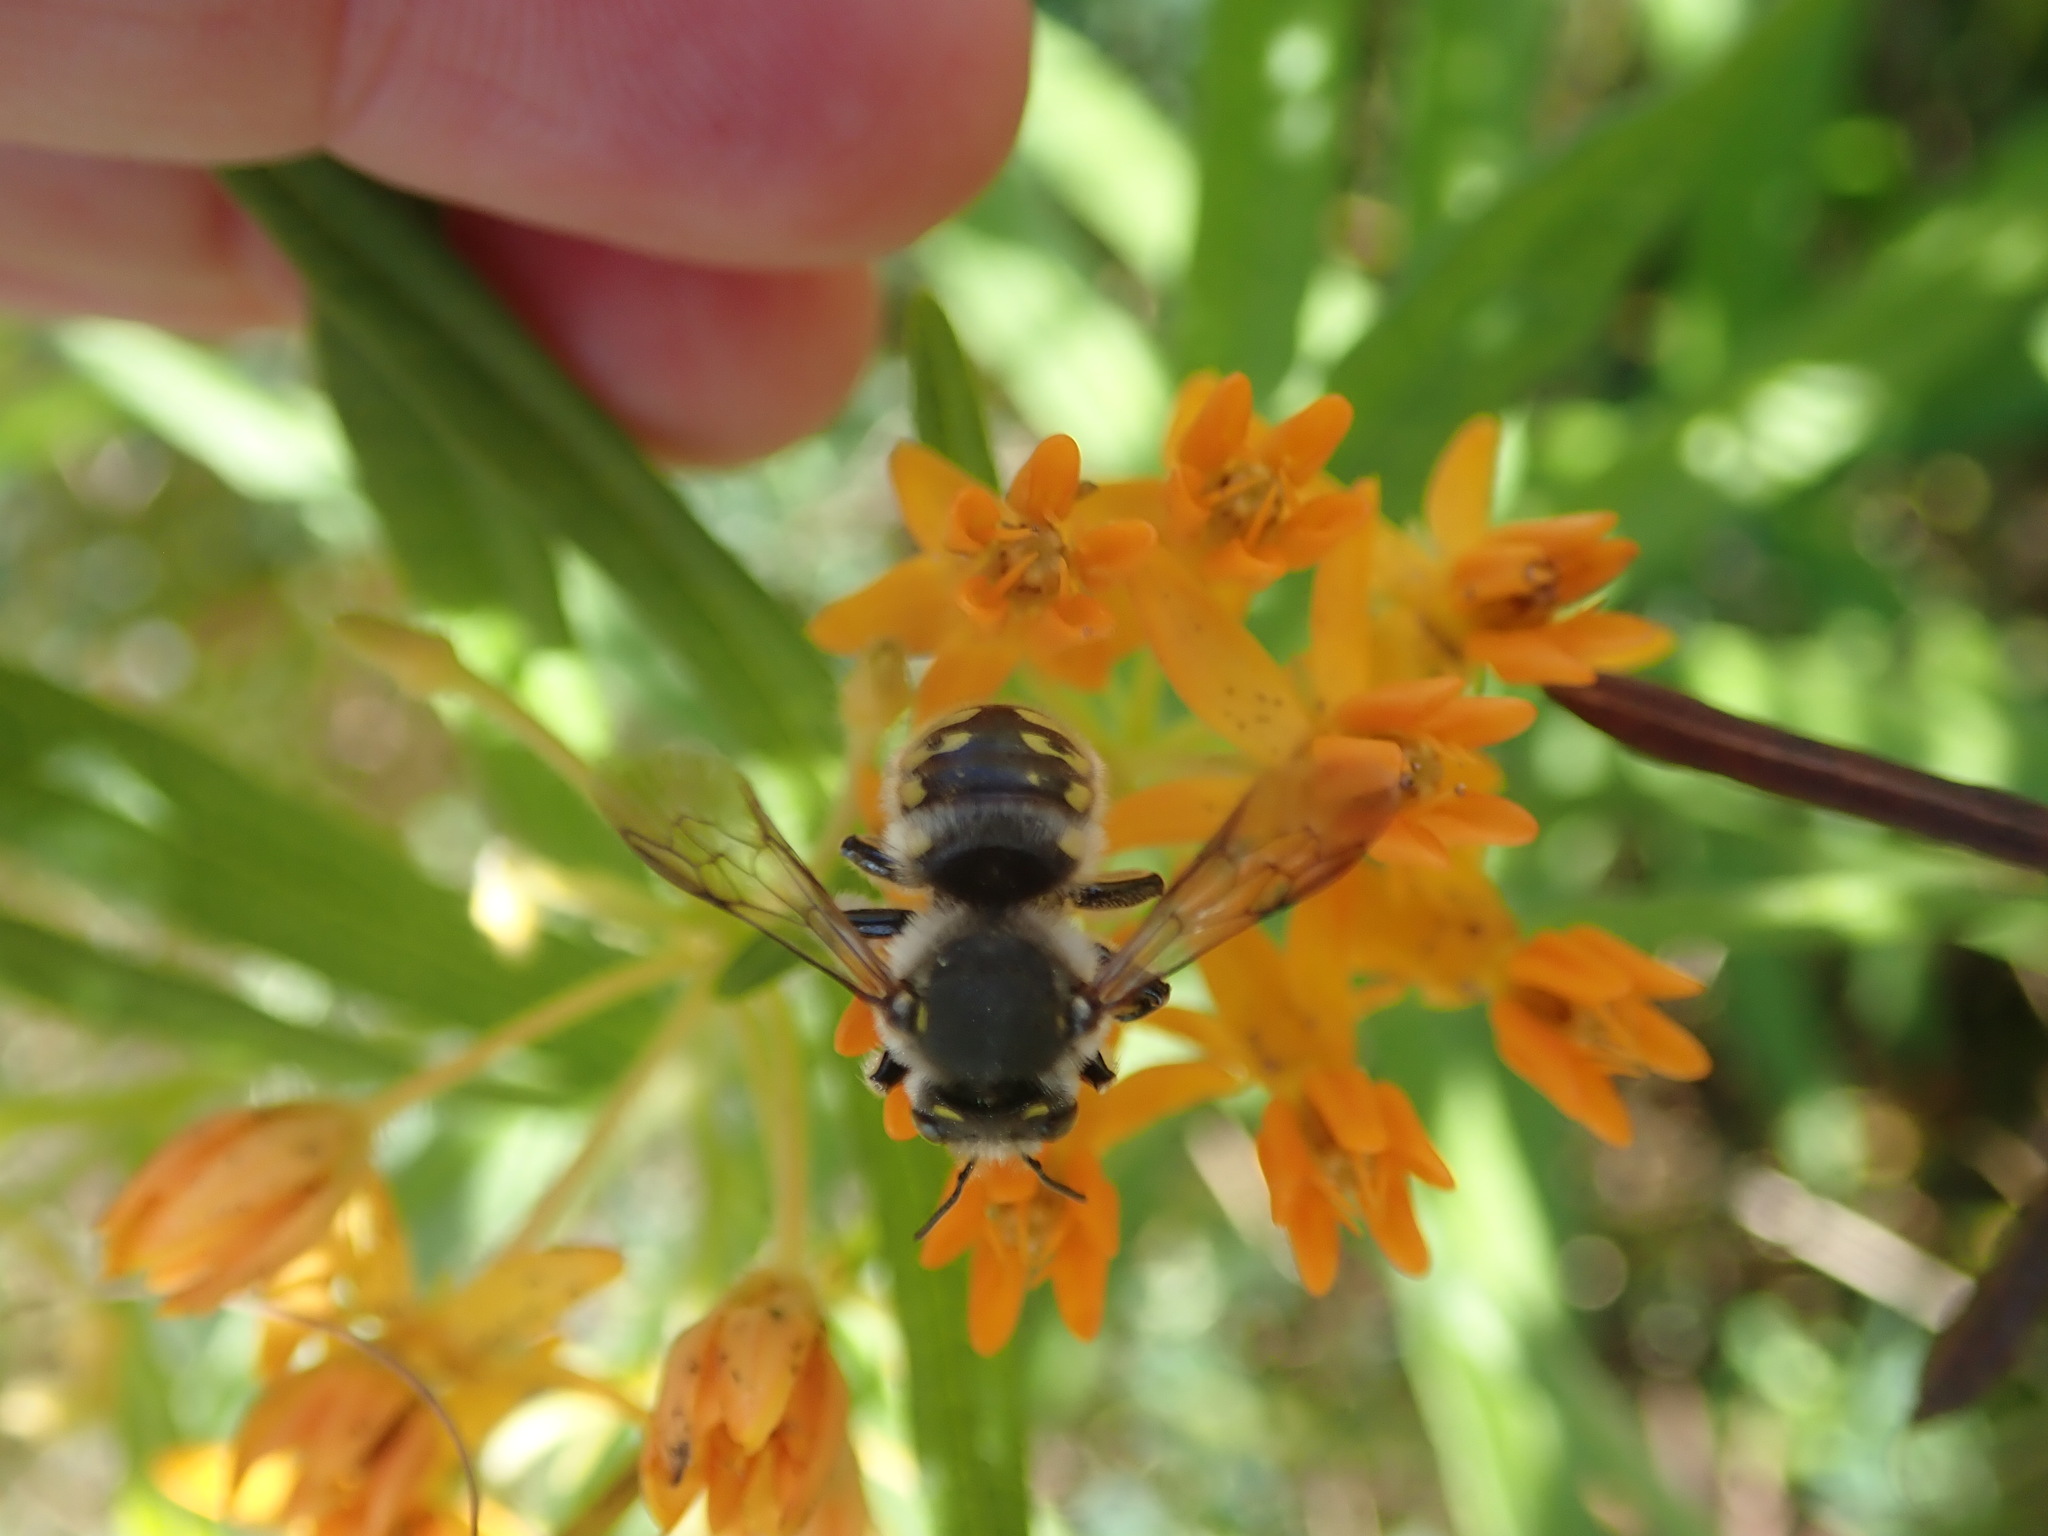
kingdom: Animalia
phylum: Arthropoda
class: Insecta
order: Hymenoptera
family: Megachilidae
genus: Anthidium
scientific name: Anthidium manicatum
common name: Wool carder bee
